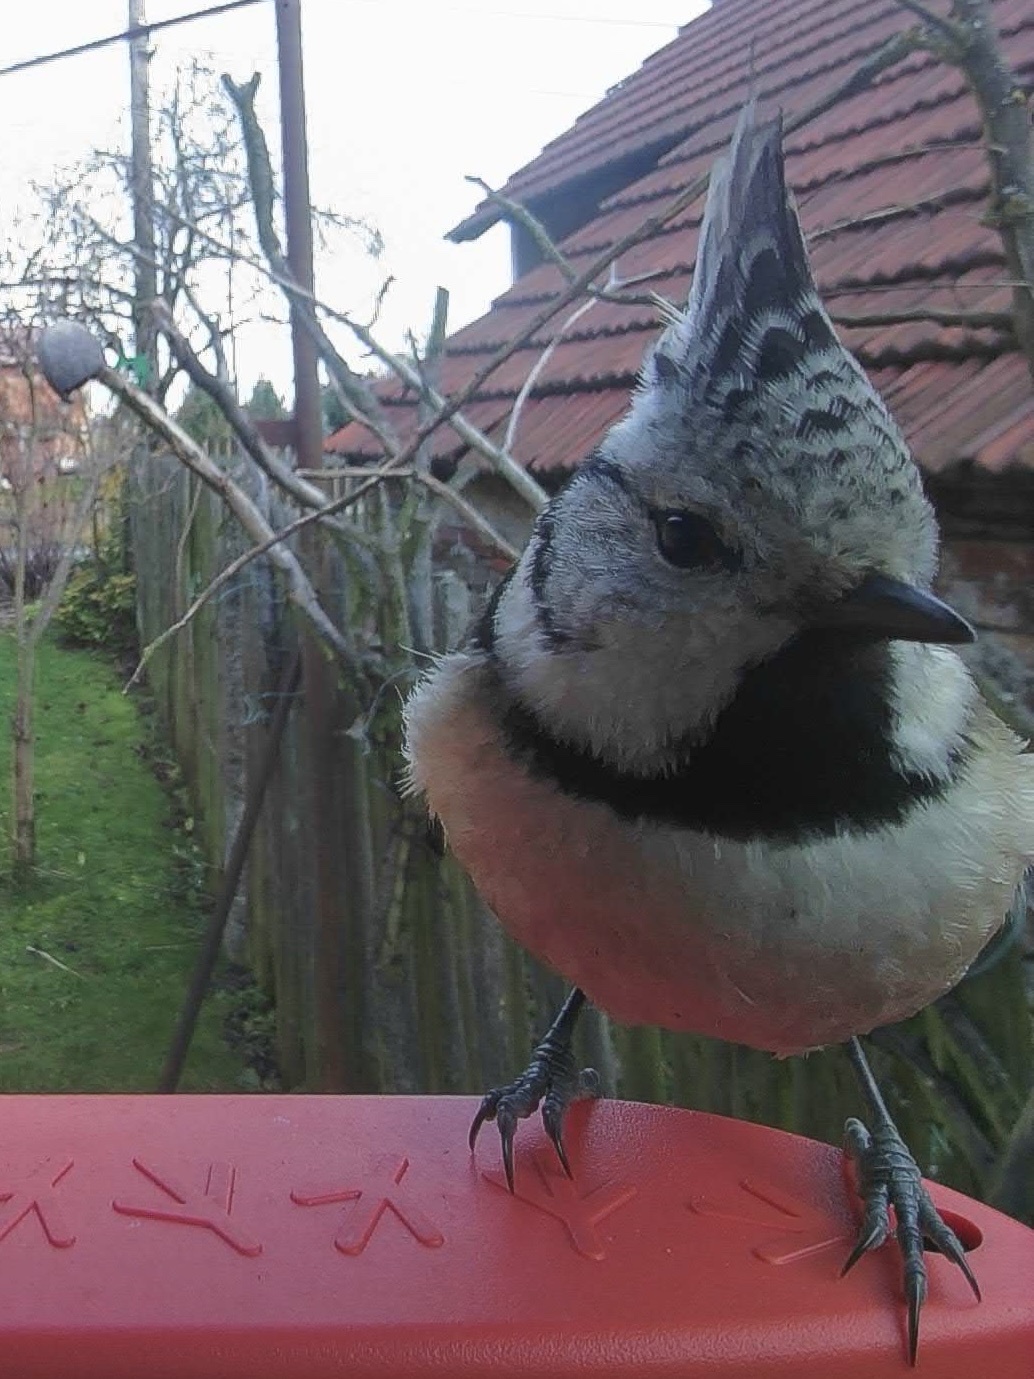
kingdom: Animalia
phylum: Chordata
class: Aves
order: Passeriformes
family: Paridae
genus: Lophophanes
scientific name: Lophophanes cristatus
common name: European crested tit
